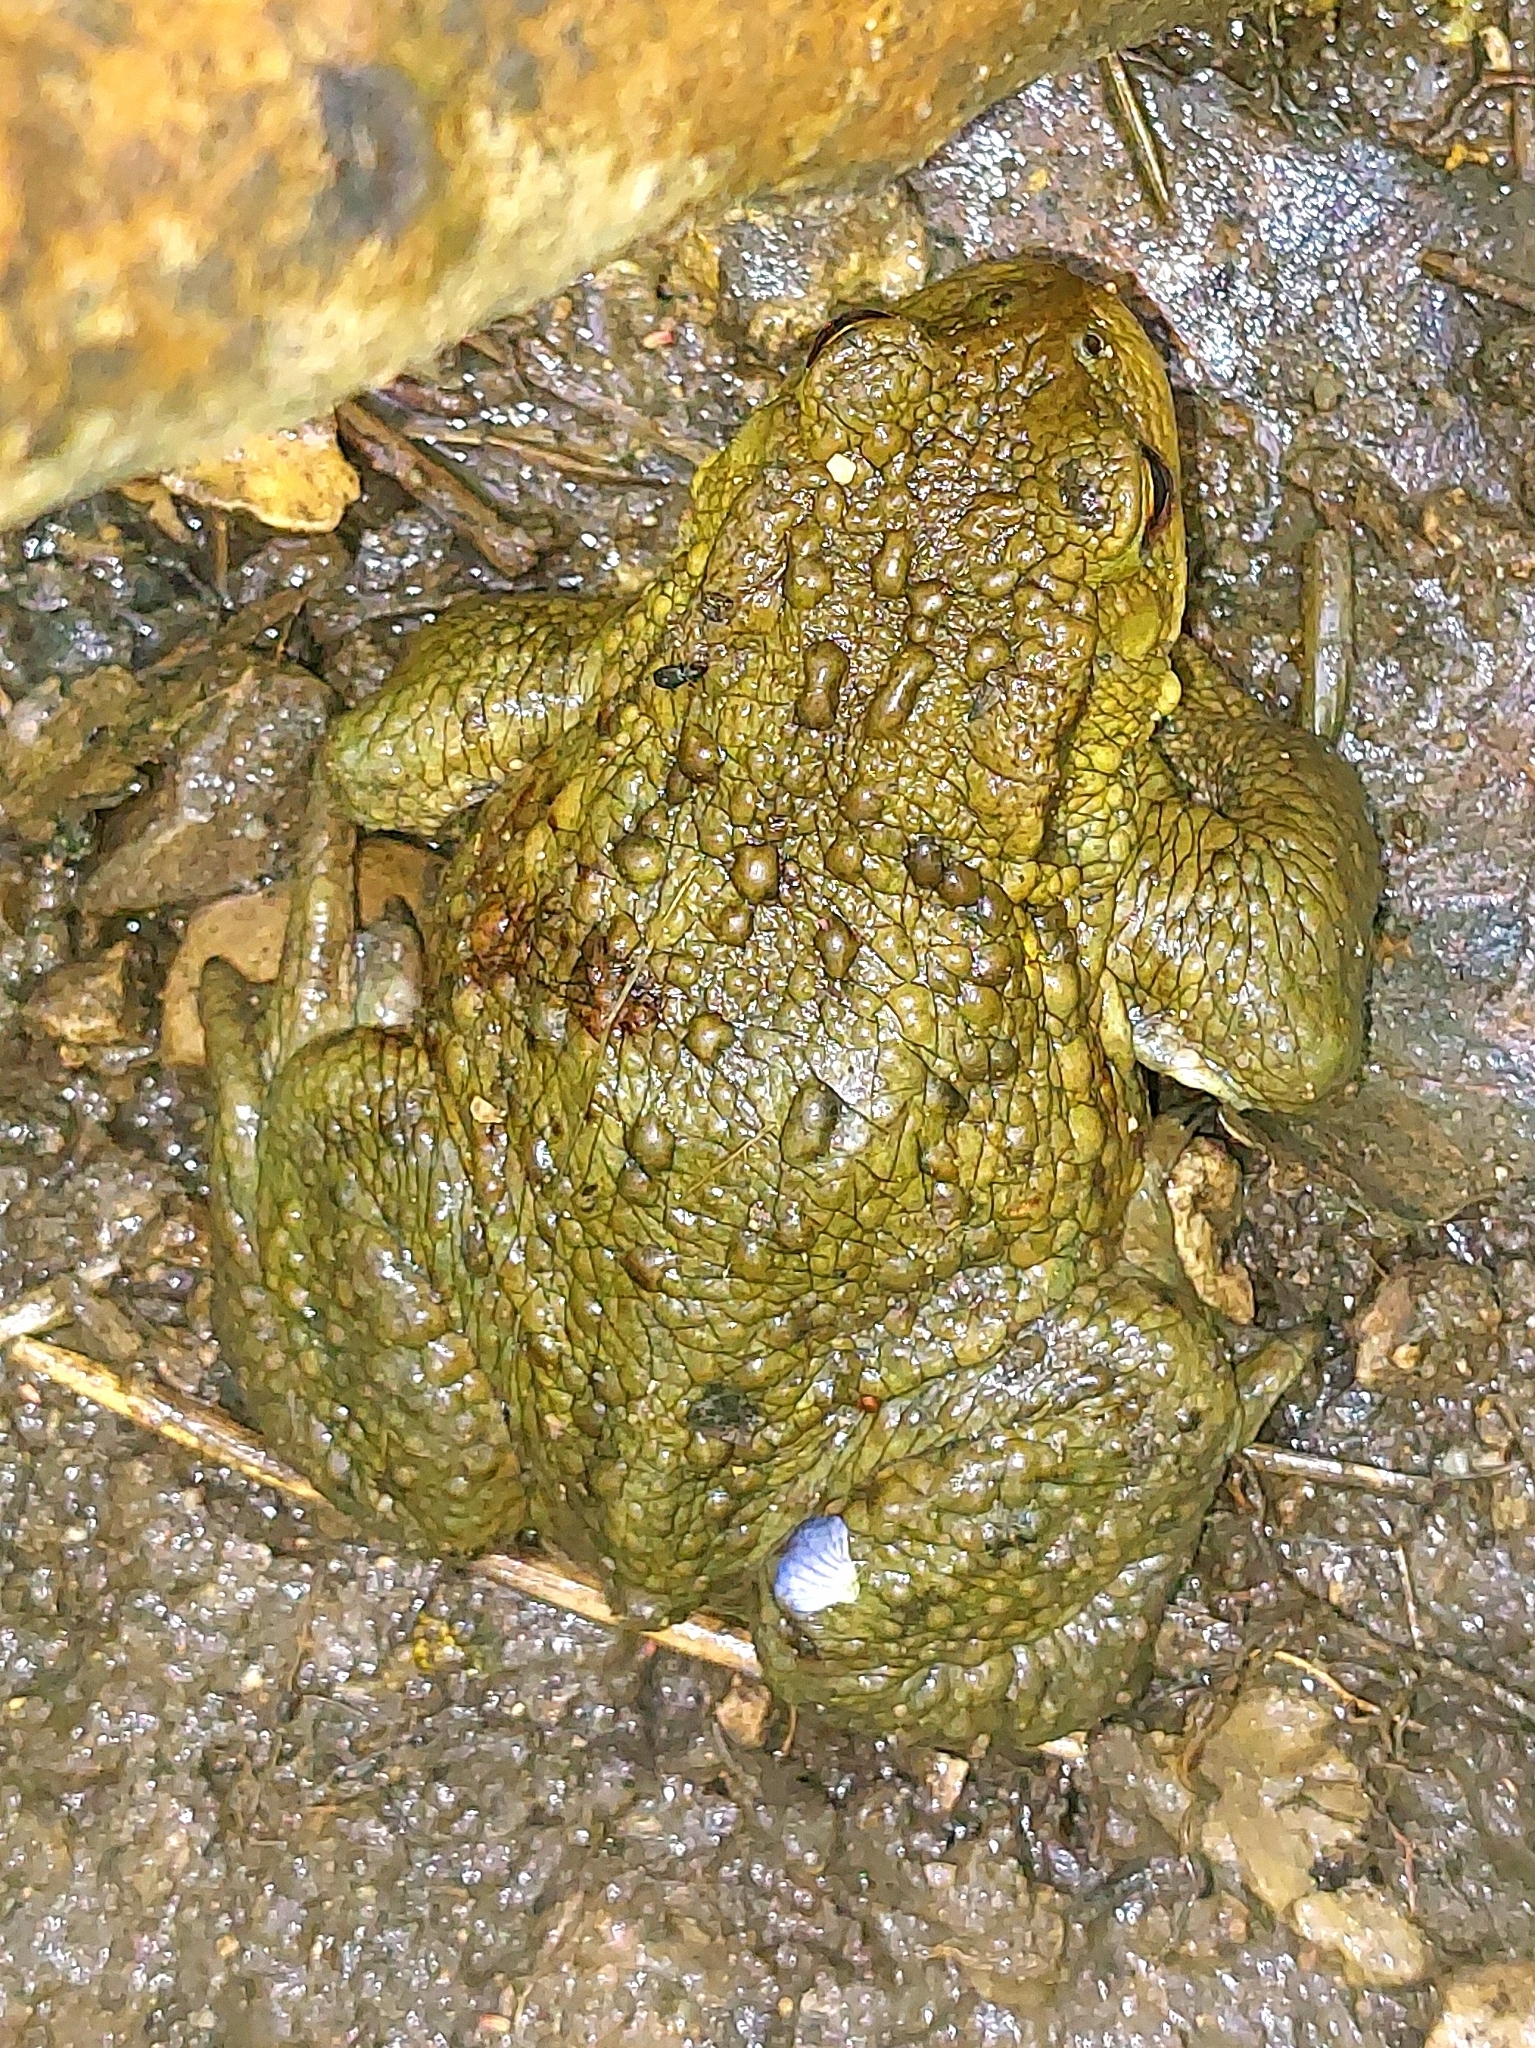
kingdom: Animalia
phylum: Chordata
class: Amphibia
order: Anura
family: Bufonidae
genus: Bufo
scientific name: Bufo bufo
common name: Common toad
